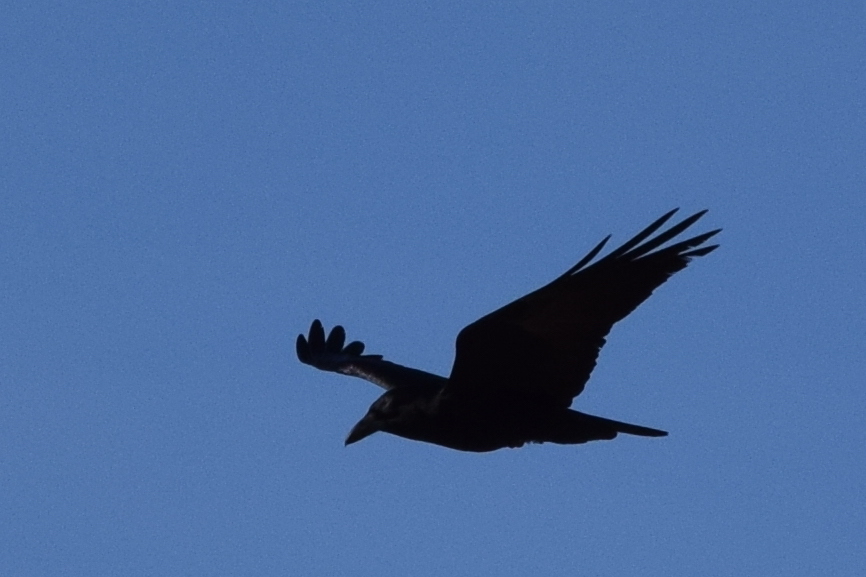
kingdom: Animalia
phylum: Chordata
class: Aves
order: Passeriformes
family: Corvidae
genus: Corvus
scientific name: Corvus corax
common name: Common raven
